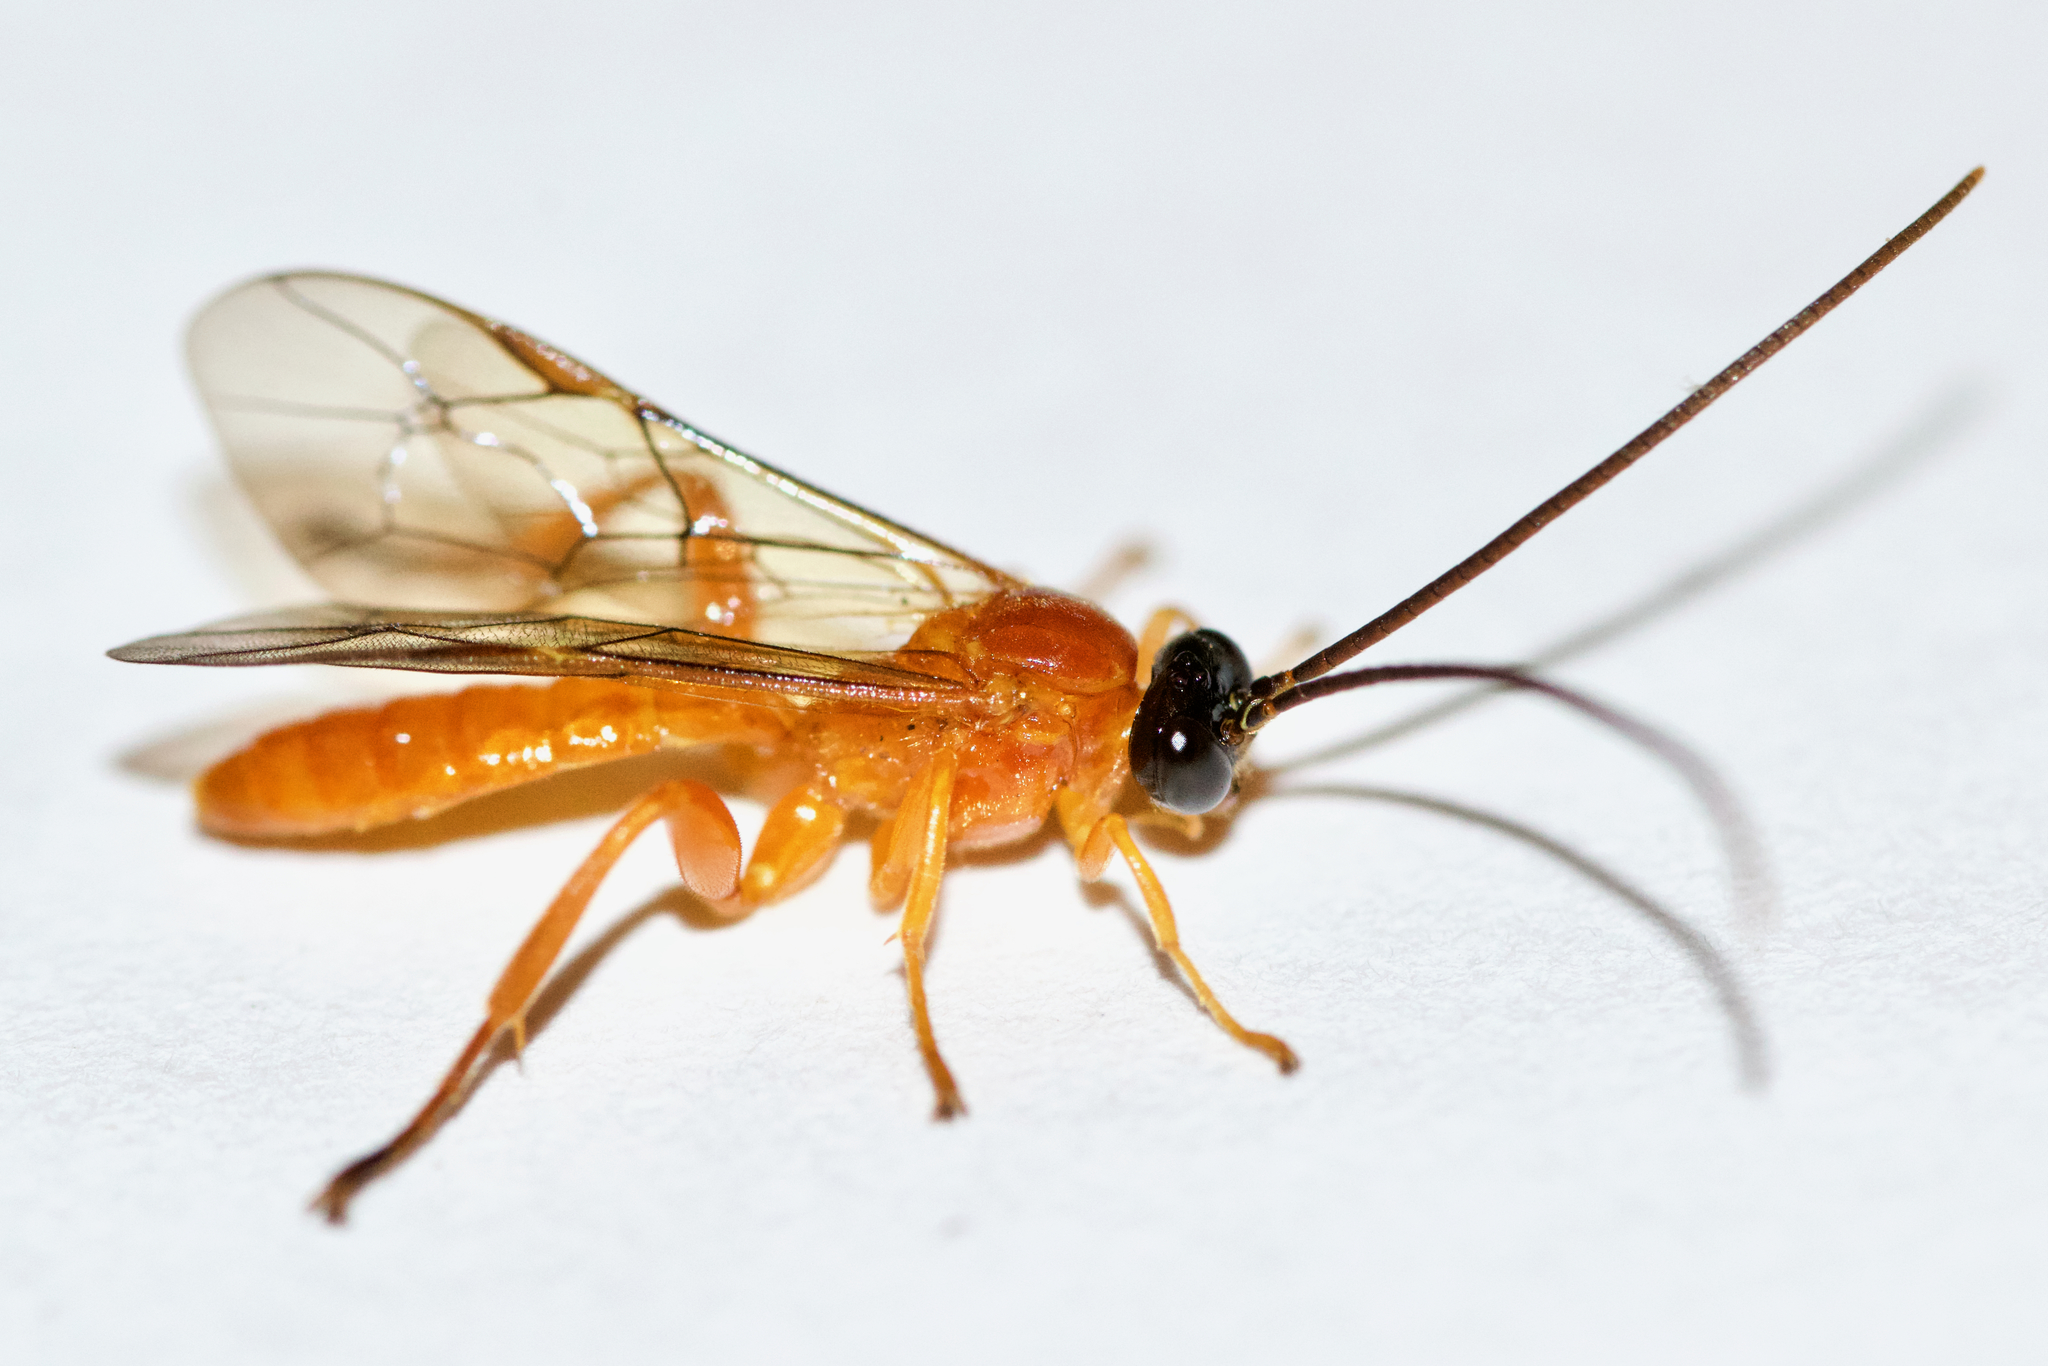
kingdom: Animalia
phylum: Arthropoda
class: Insecta
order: Hymenoptera
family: Ichneumonidae
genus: Theronia
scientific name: Theronia hilaris
